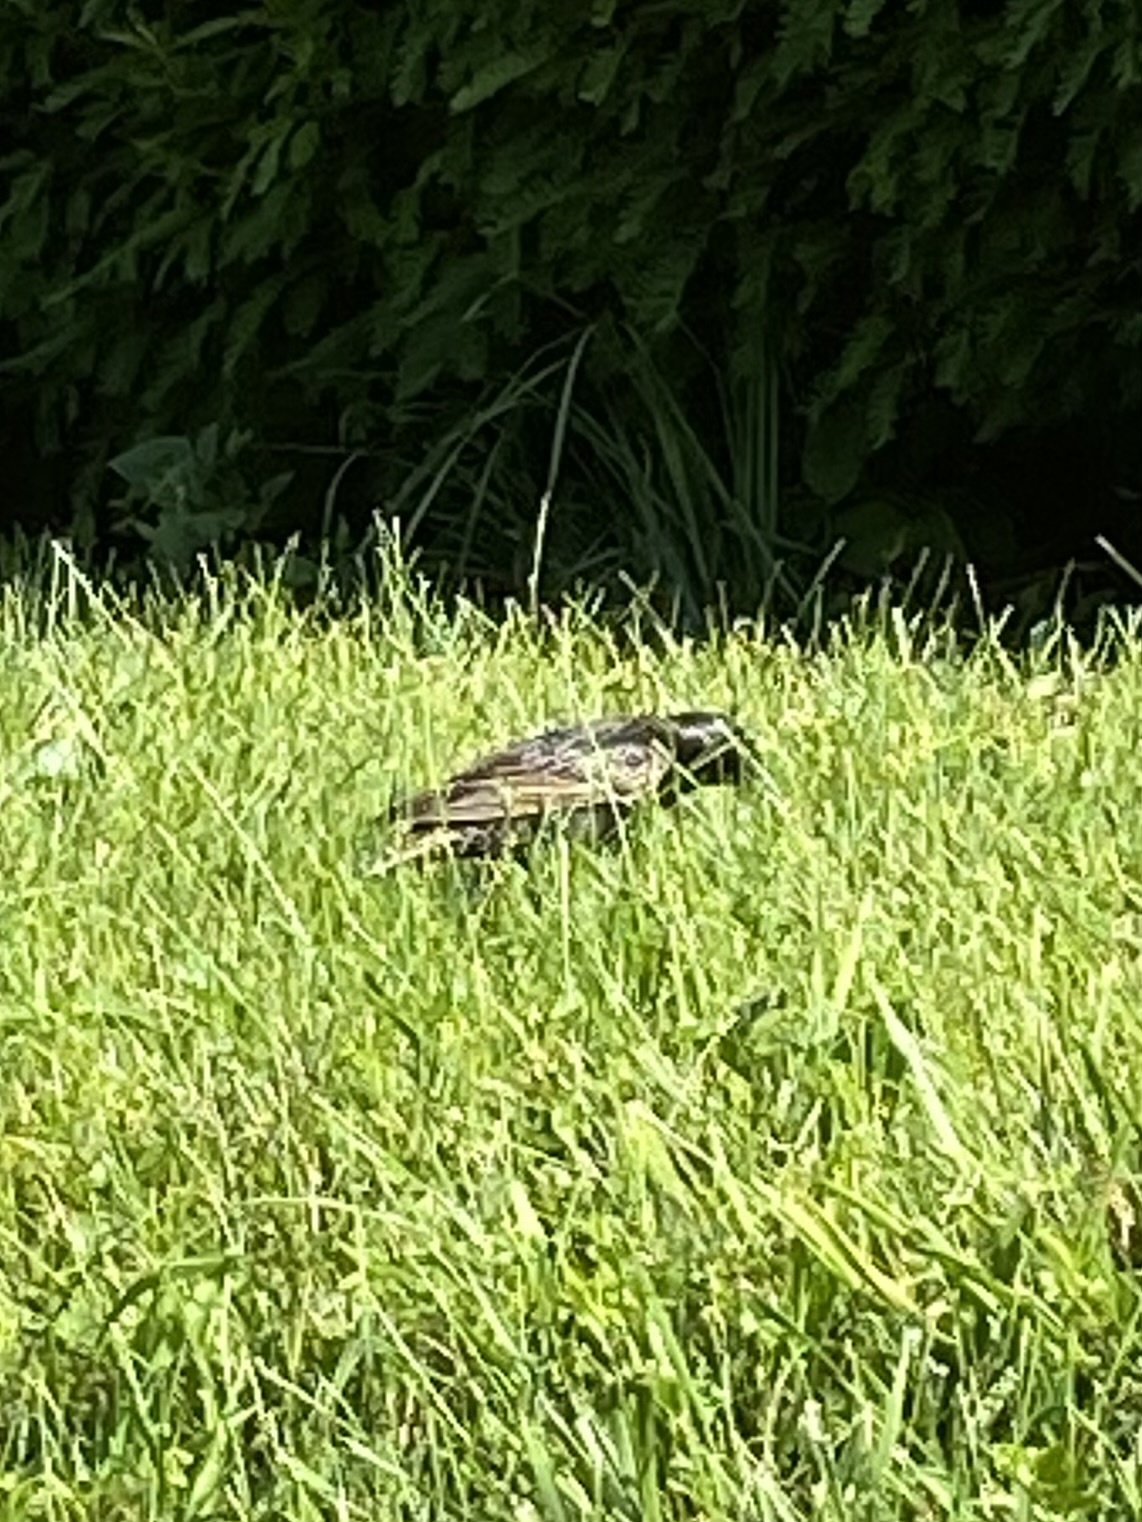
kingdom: Animalia
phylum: Chordata
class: Aves
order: Passeriformes
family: Sturnidae
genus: Sturnus
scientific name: Sturnus vulgaris
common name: Common starling
